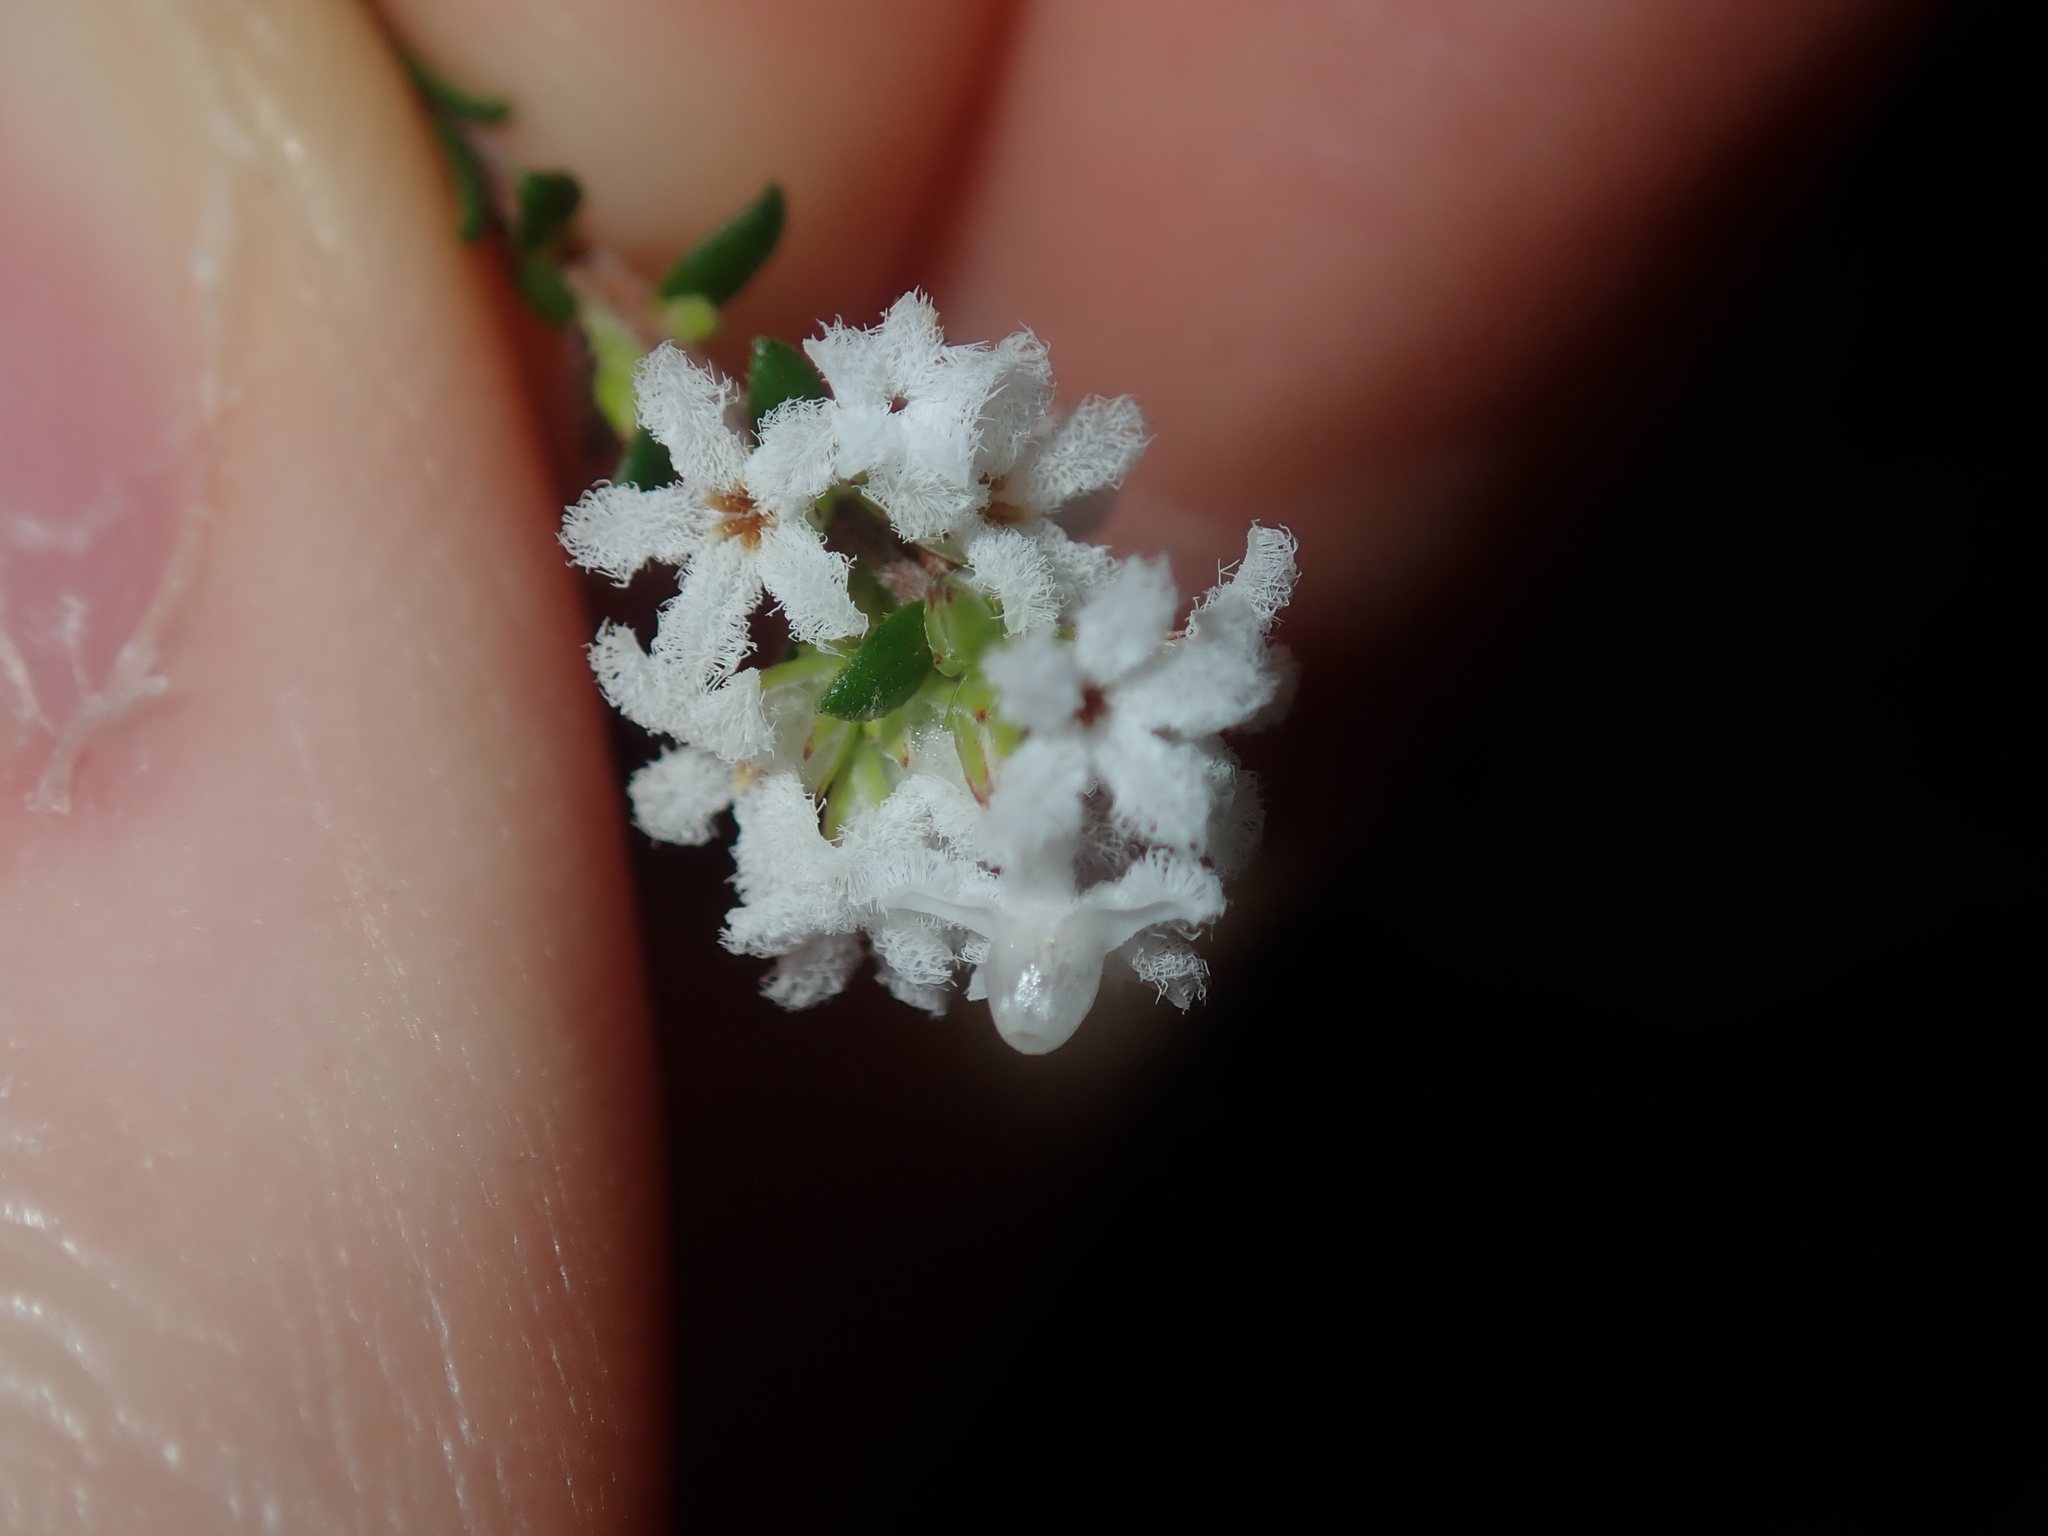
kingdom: Plantae
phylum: Tracheophyta
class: Magnoliopsida
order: Ericales
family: Ericaceae
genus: Leucopogon
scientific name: Leucopogon microphyllus
